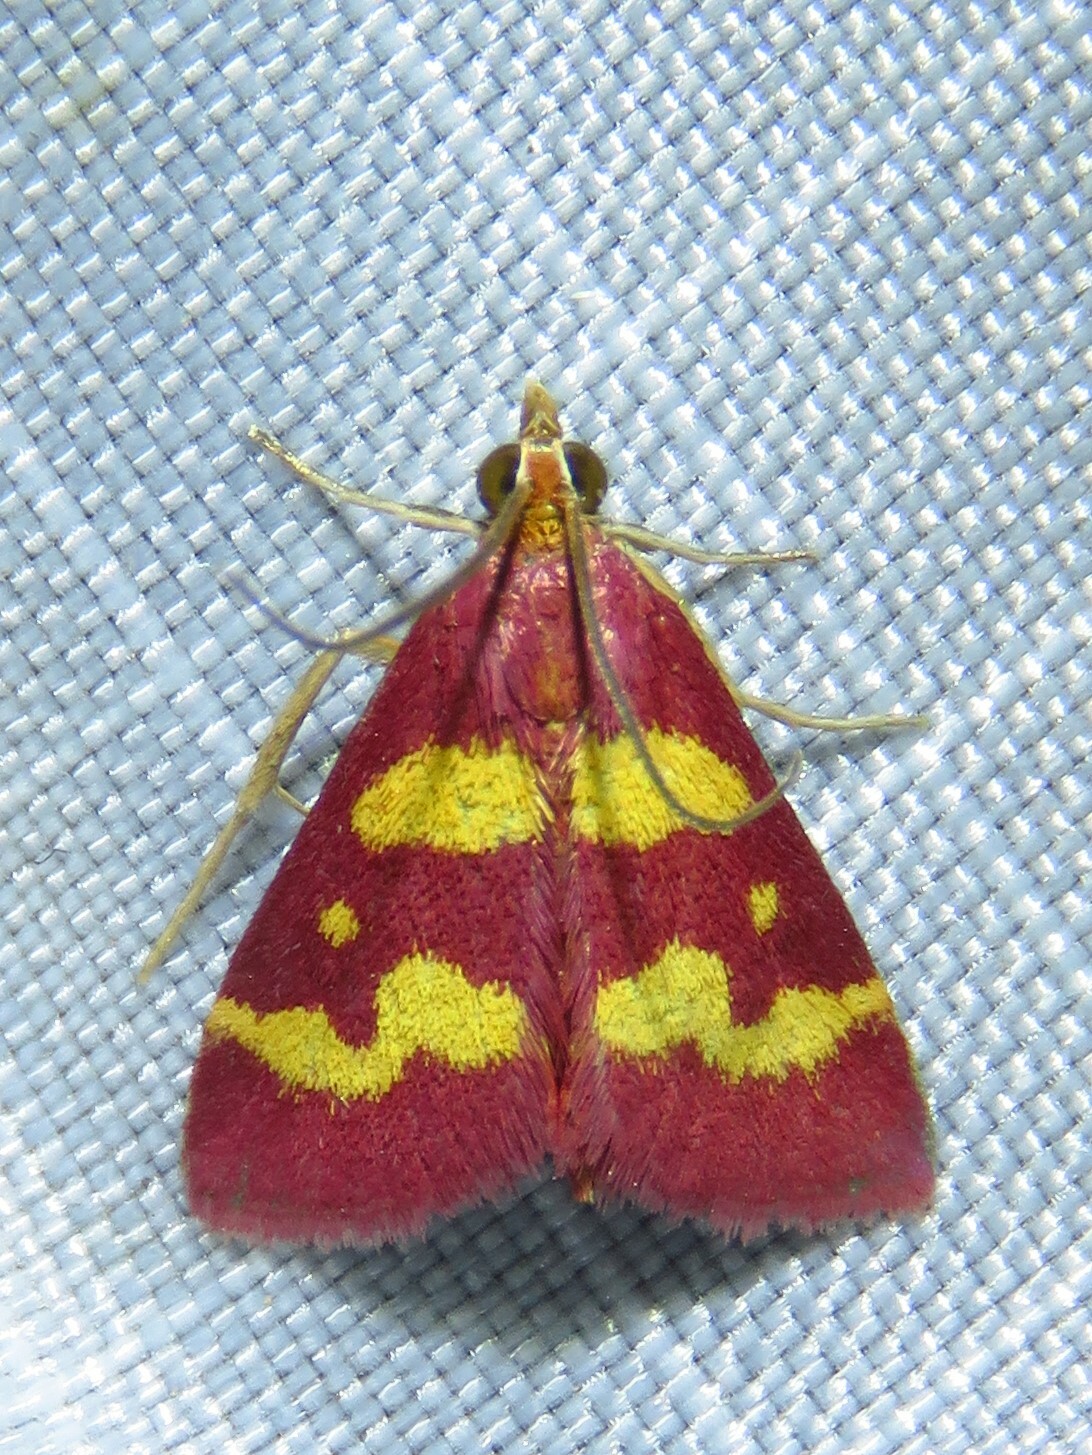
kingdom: Animalia
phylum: Arthropoda
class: Insecta
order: Lepidoptera
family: Crambidae
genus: Pyrausta
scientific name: Pyrausta tyralis
